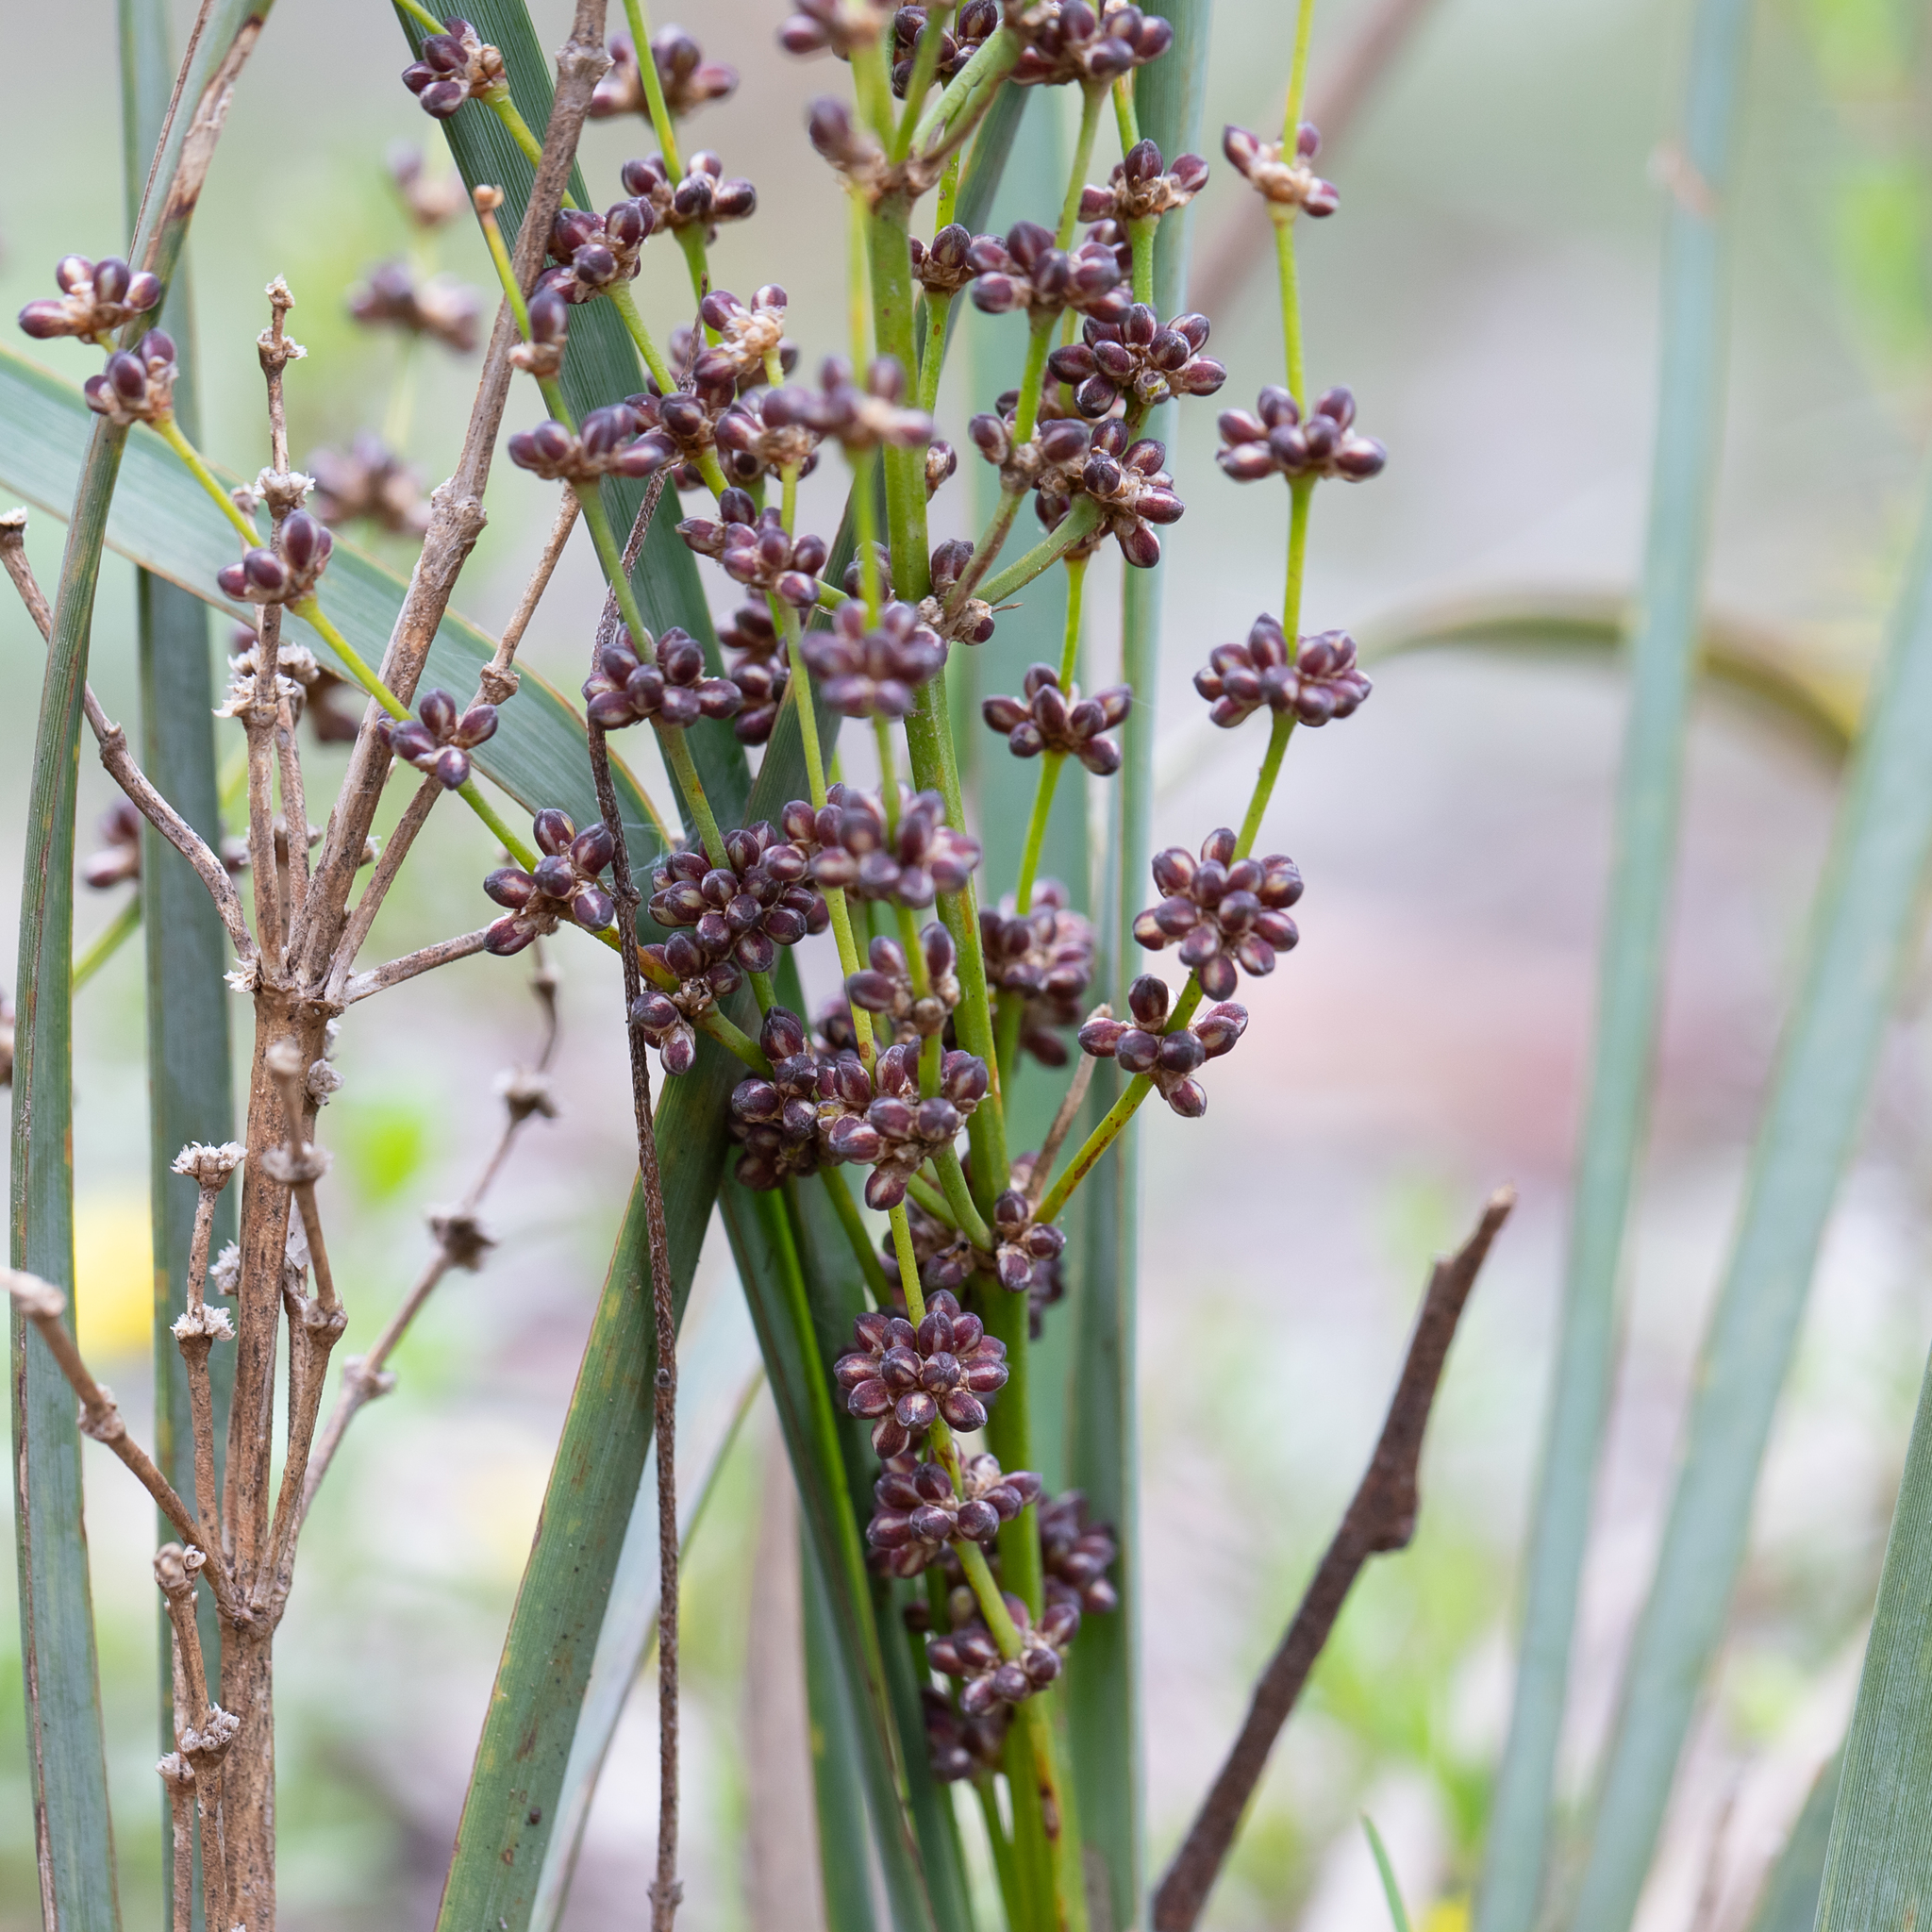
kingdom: Plantae
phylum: Tracheophyta
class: Liliopsida
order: Asparagales
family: Asparagaceae
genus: Lomandra
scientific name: Lomandra multiflora
